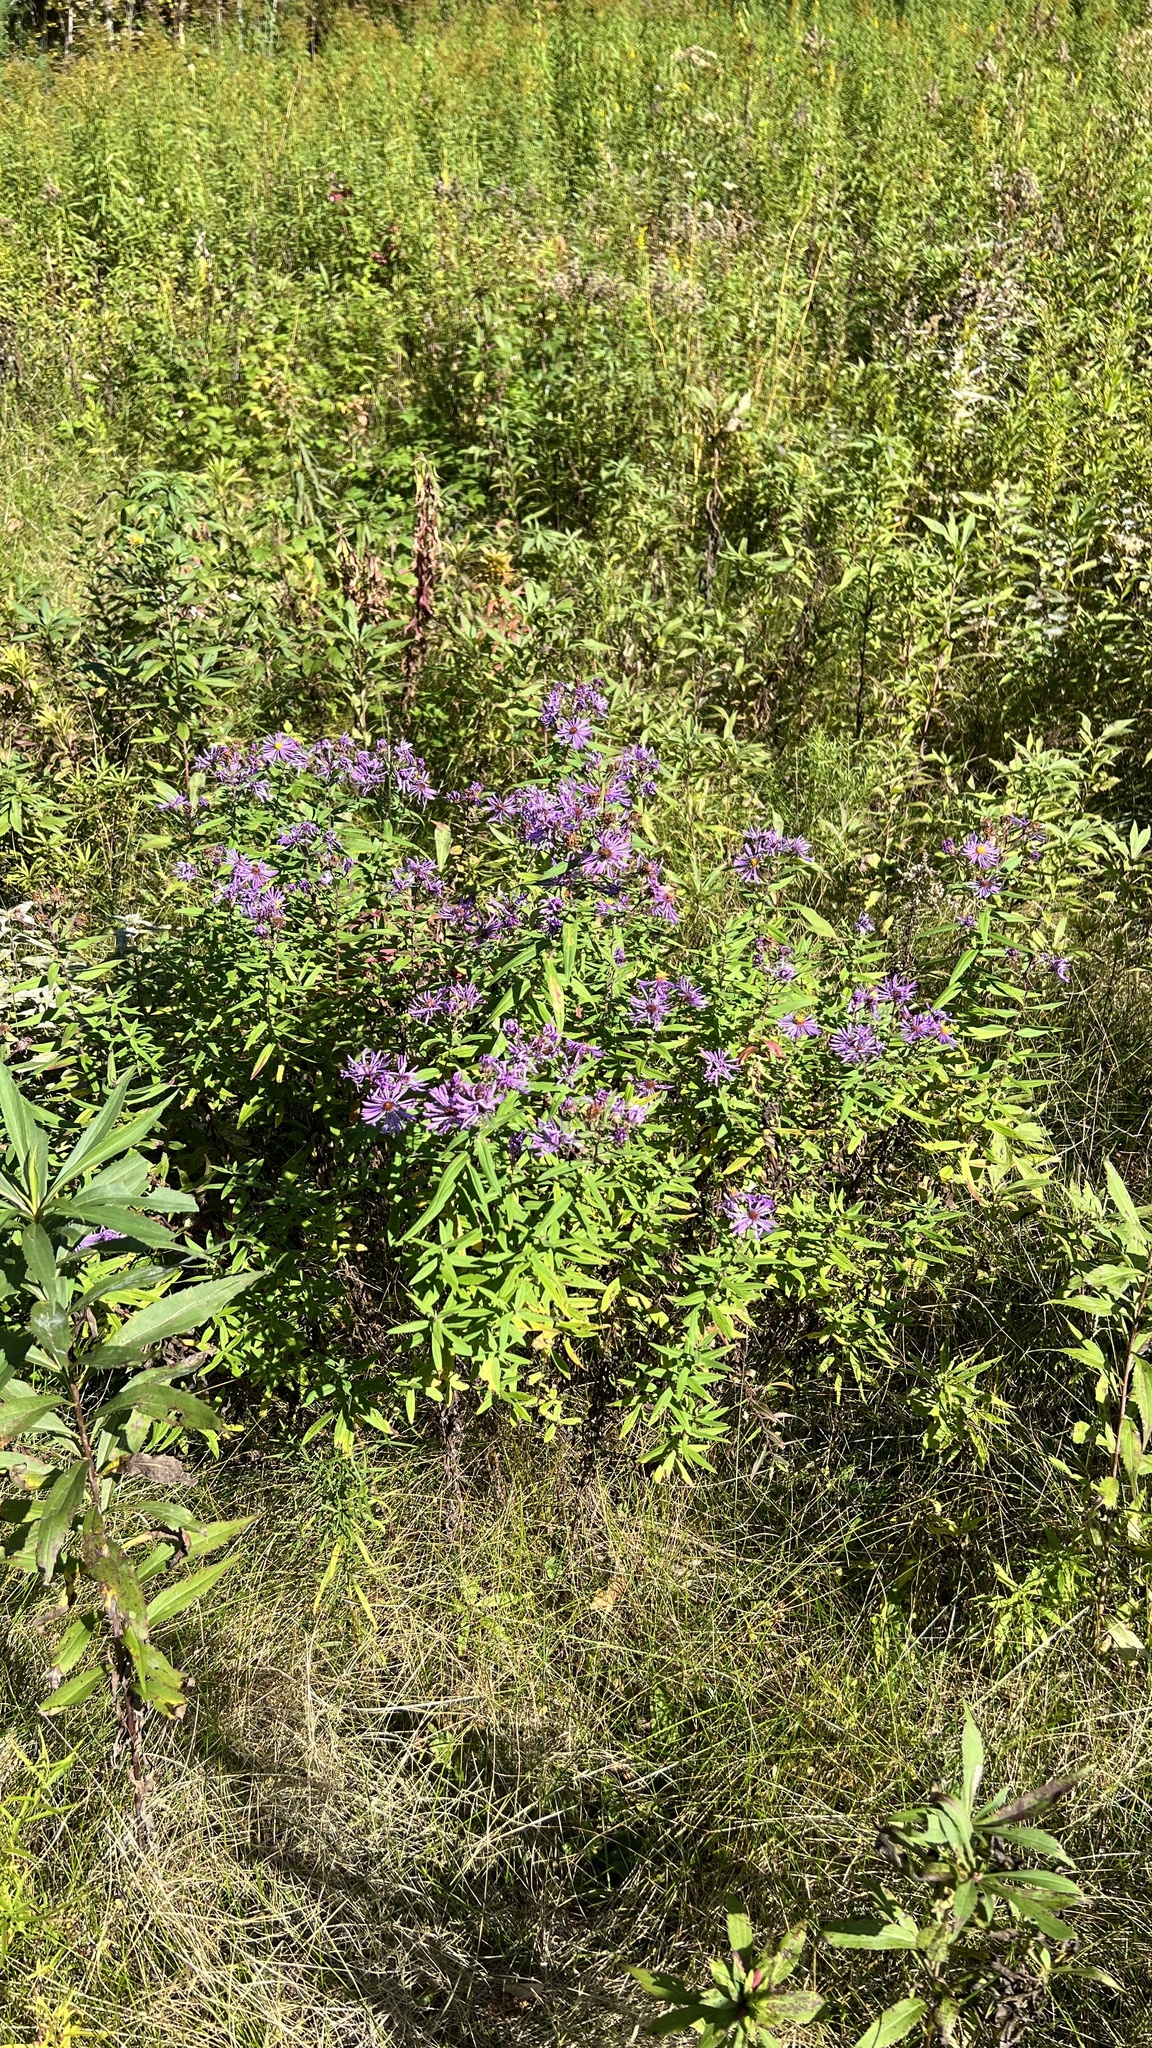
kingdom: Plantae
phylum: Tracheophyta
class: Magnoliopsida
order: Asterales
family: Asteraceae
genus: Symphyotrichum
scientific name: Symphyotrichum novae-angliae
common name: Michaelmas daisy
